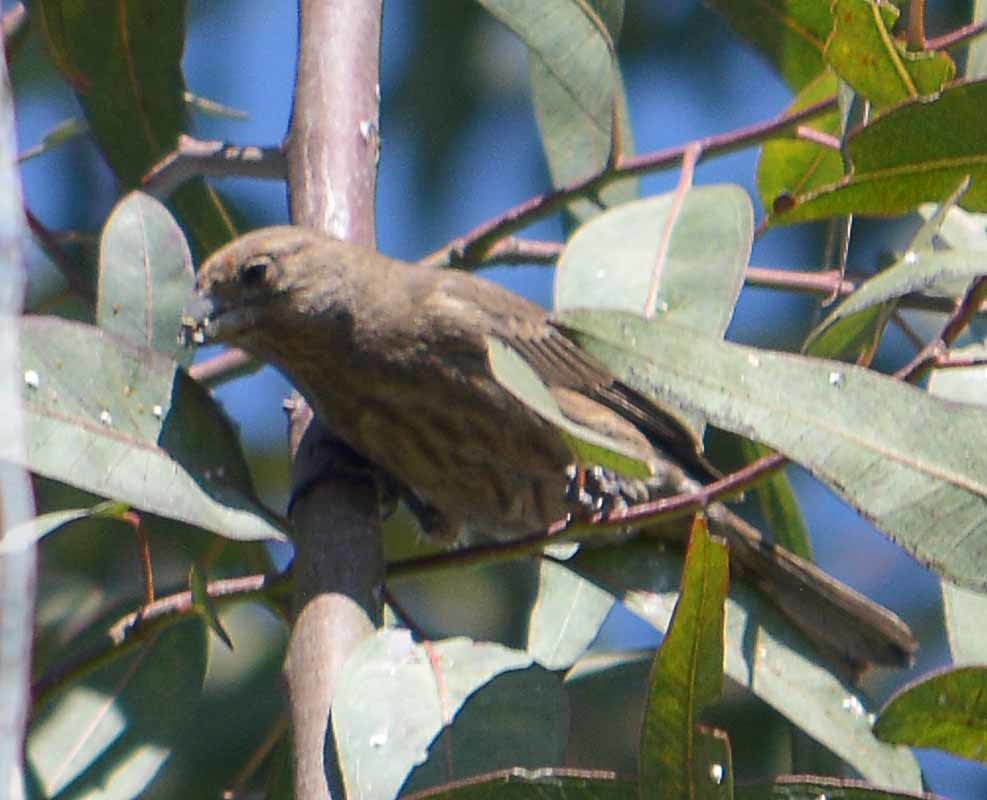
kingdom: Animalia
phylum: Chordata
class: Aves
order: Passeriformes
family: Fringillidae
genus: Haemorhous
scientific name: Haemorhous mexicanus
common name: House finch
